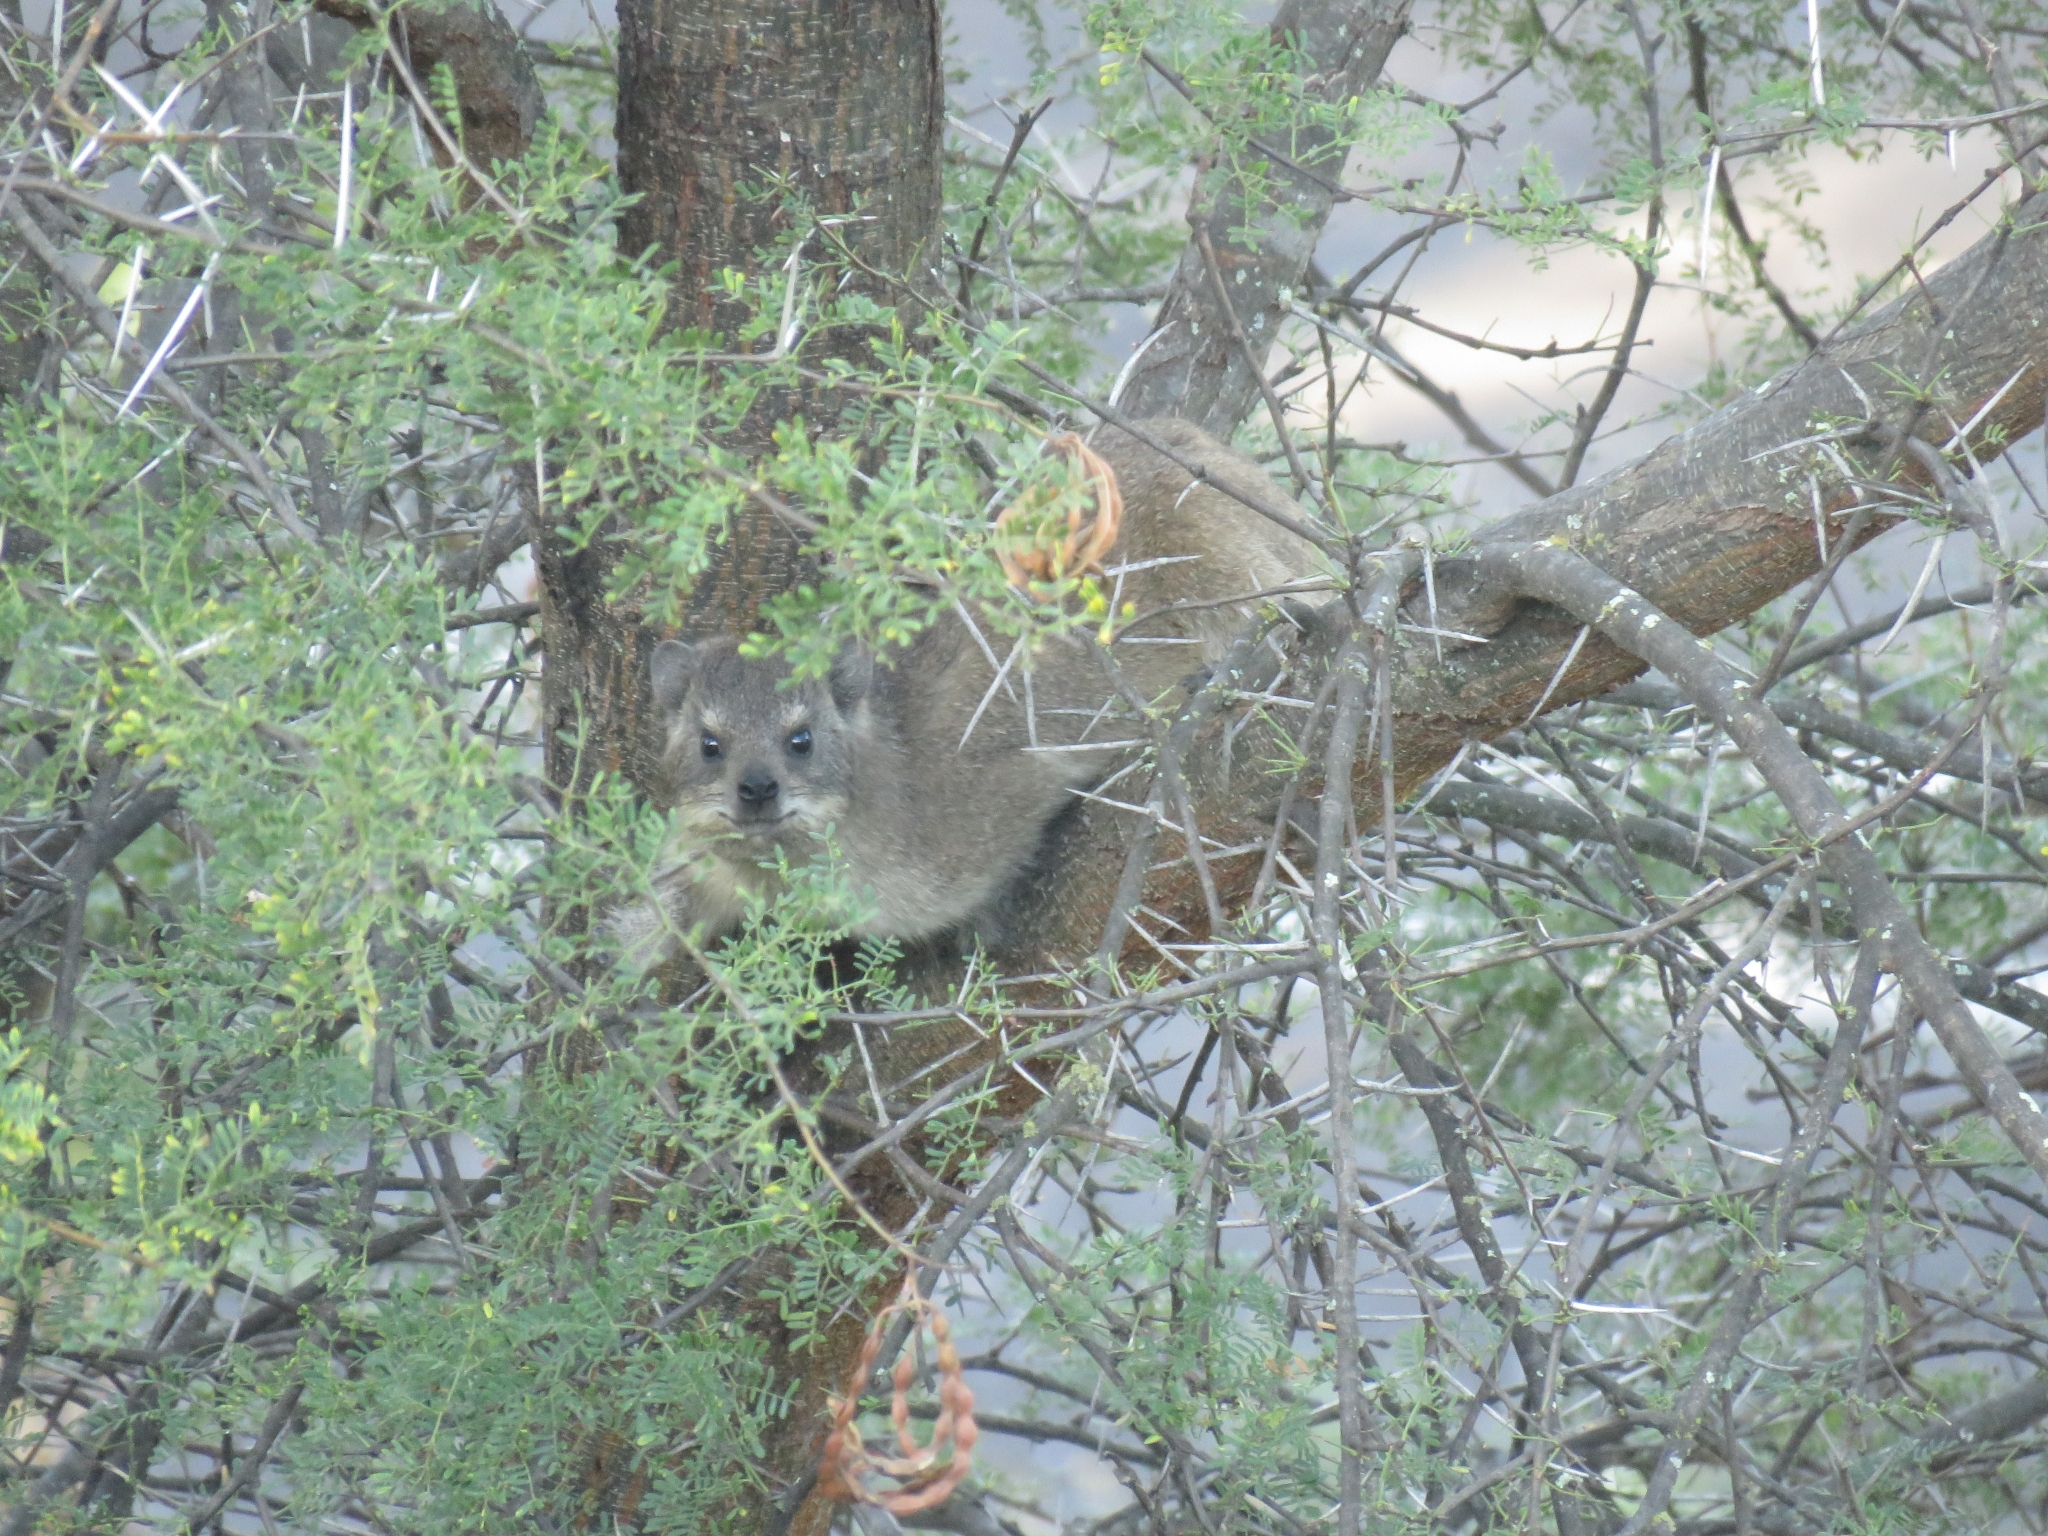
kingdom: Animalia
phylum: Chordata
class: Mammalia
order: Hyracoidea
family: Procaviidae
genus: Procavia
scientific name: Procavia capensis
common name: Rock hyrax
